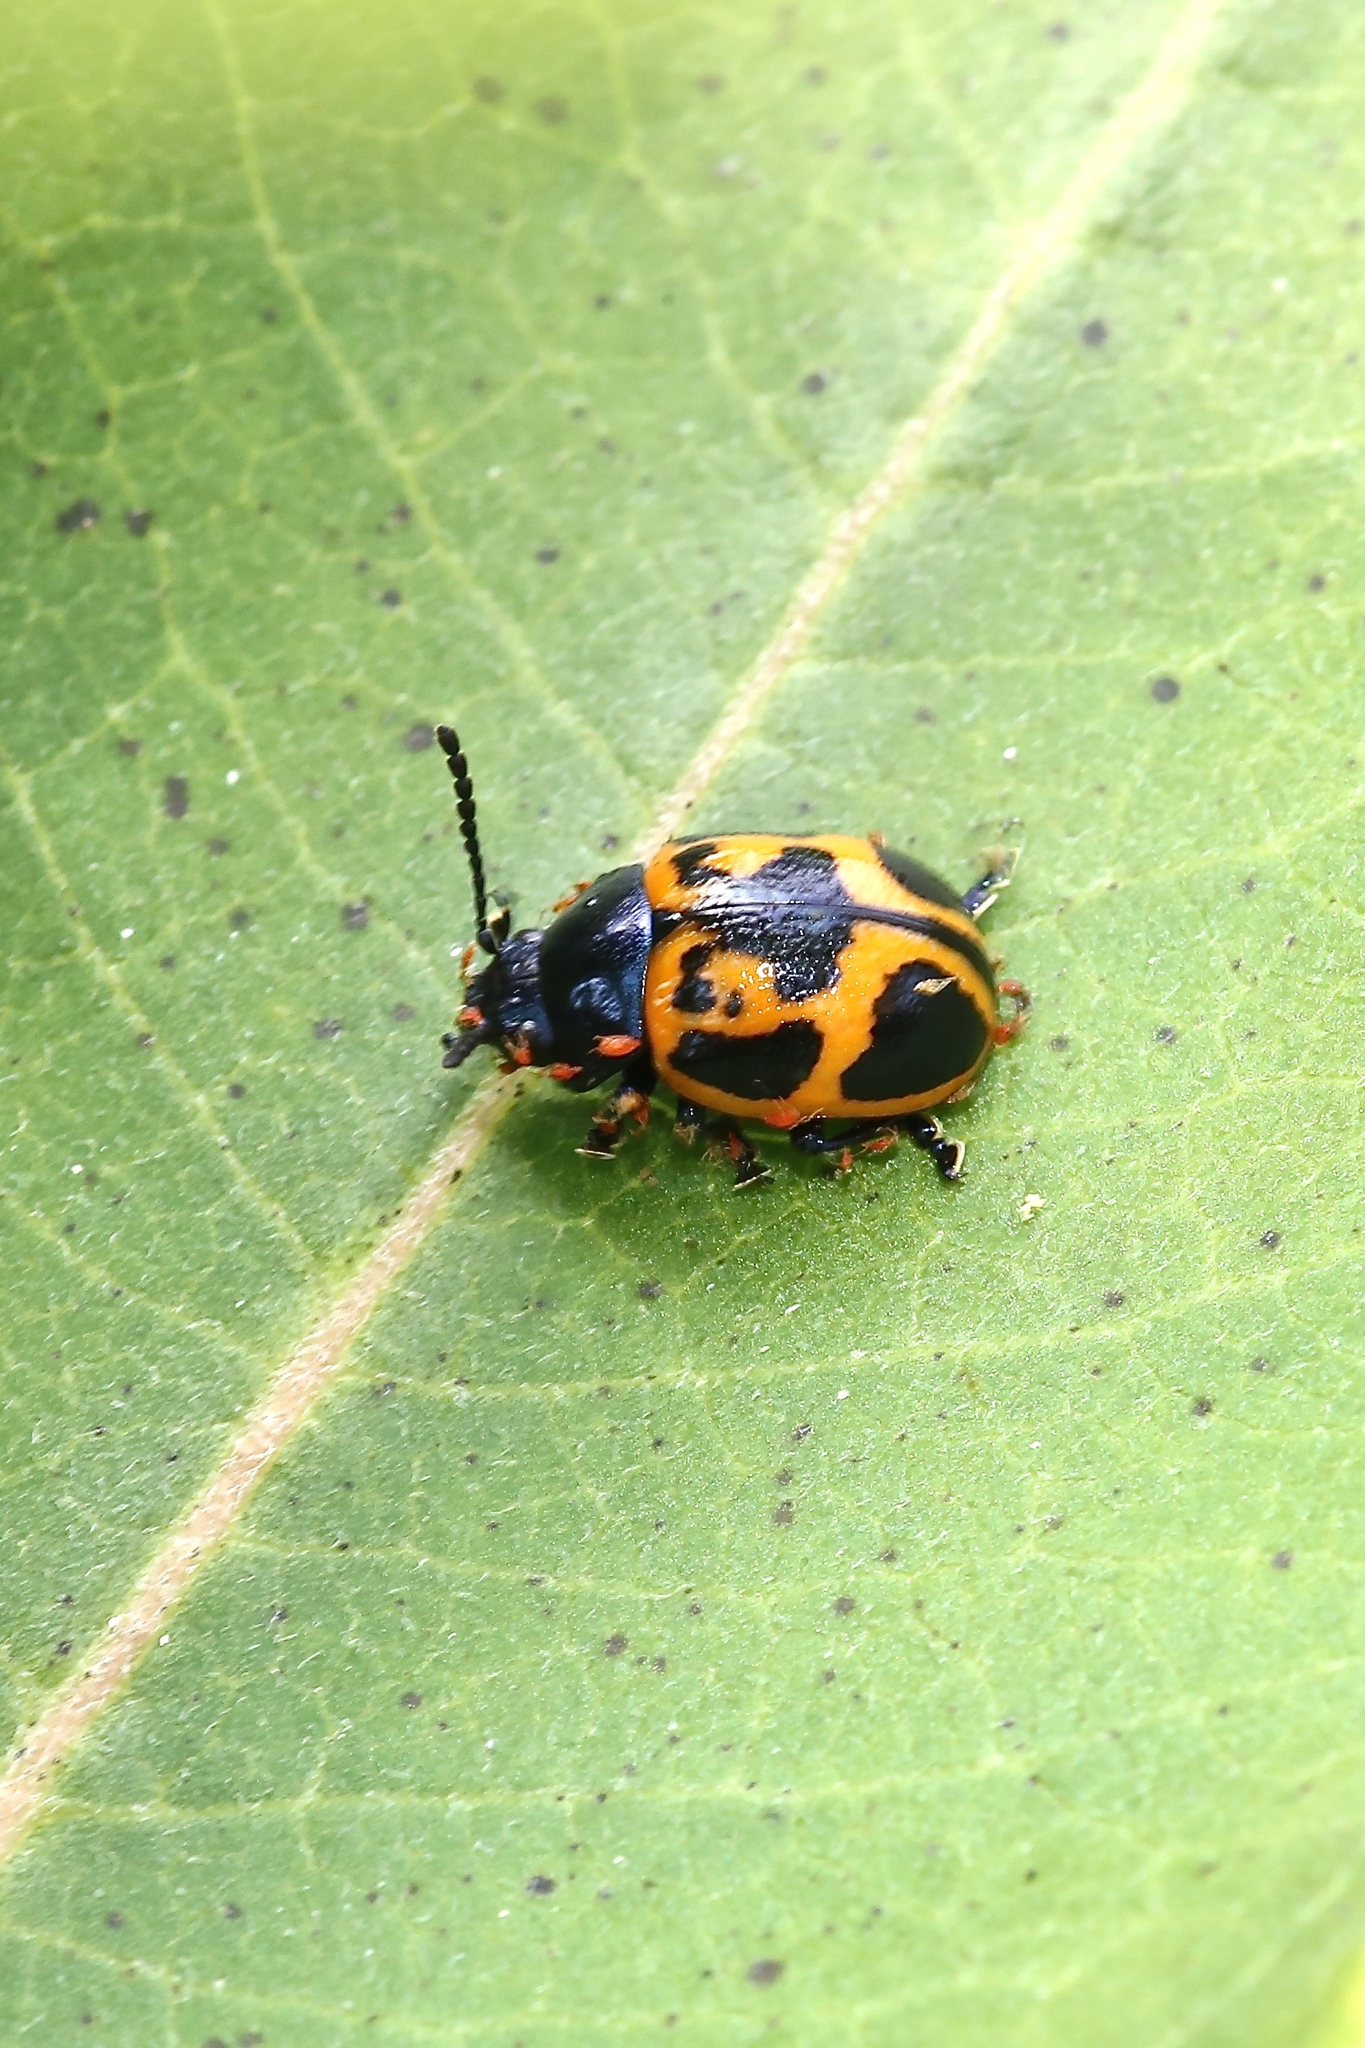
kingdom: Animalia
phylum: Arthropoda
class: Insecta
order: Coleoptera
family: Chrysomelidae
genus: Labidomera
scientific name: Labidomera clivicollis
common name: Swamp milkweed leaf beetle
